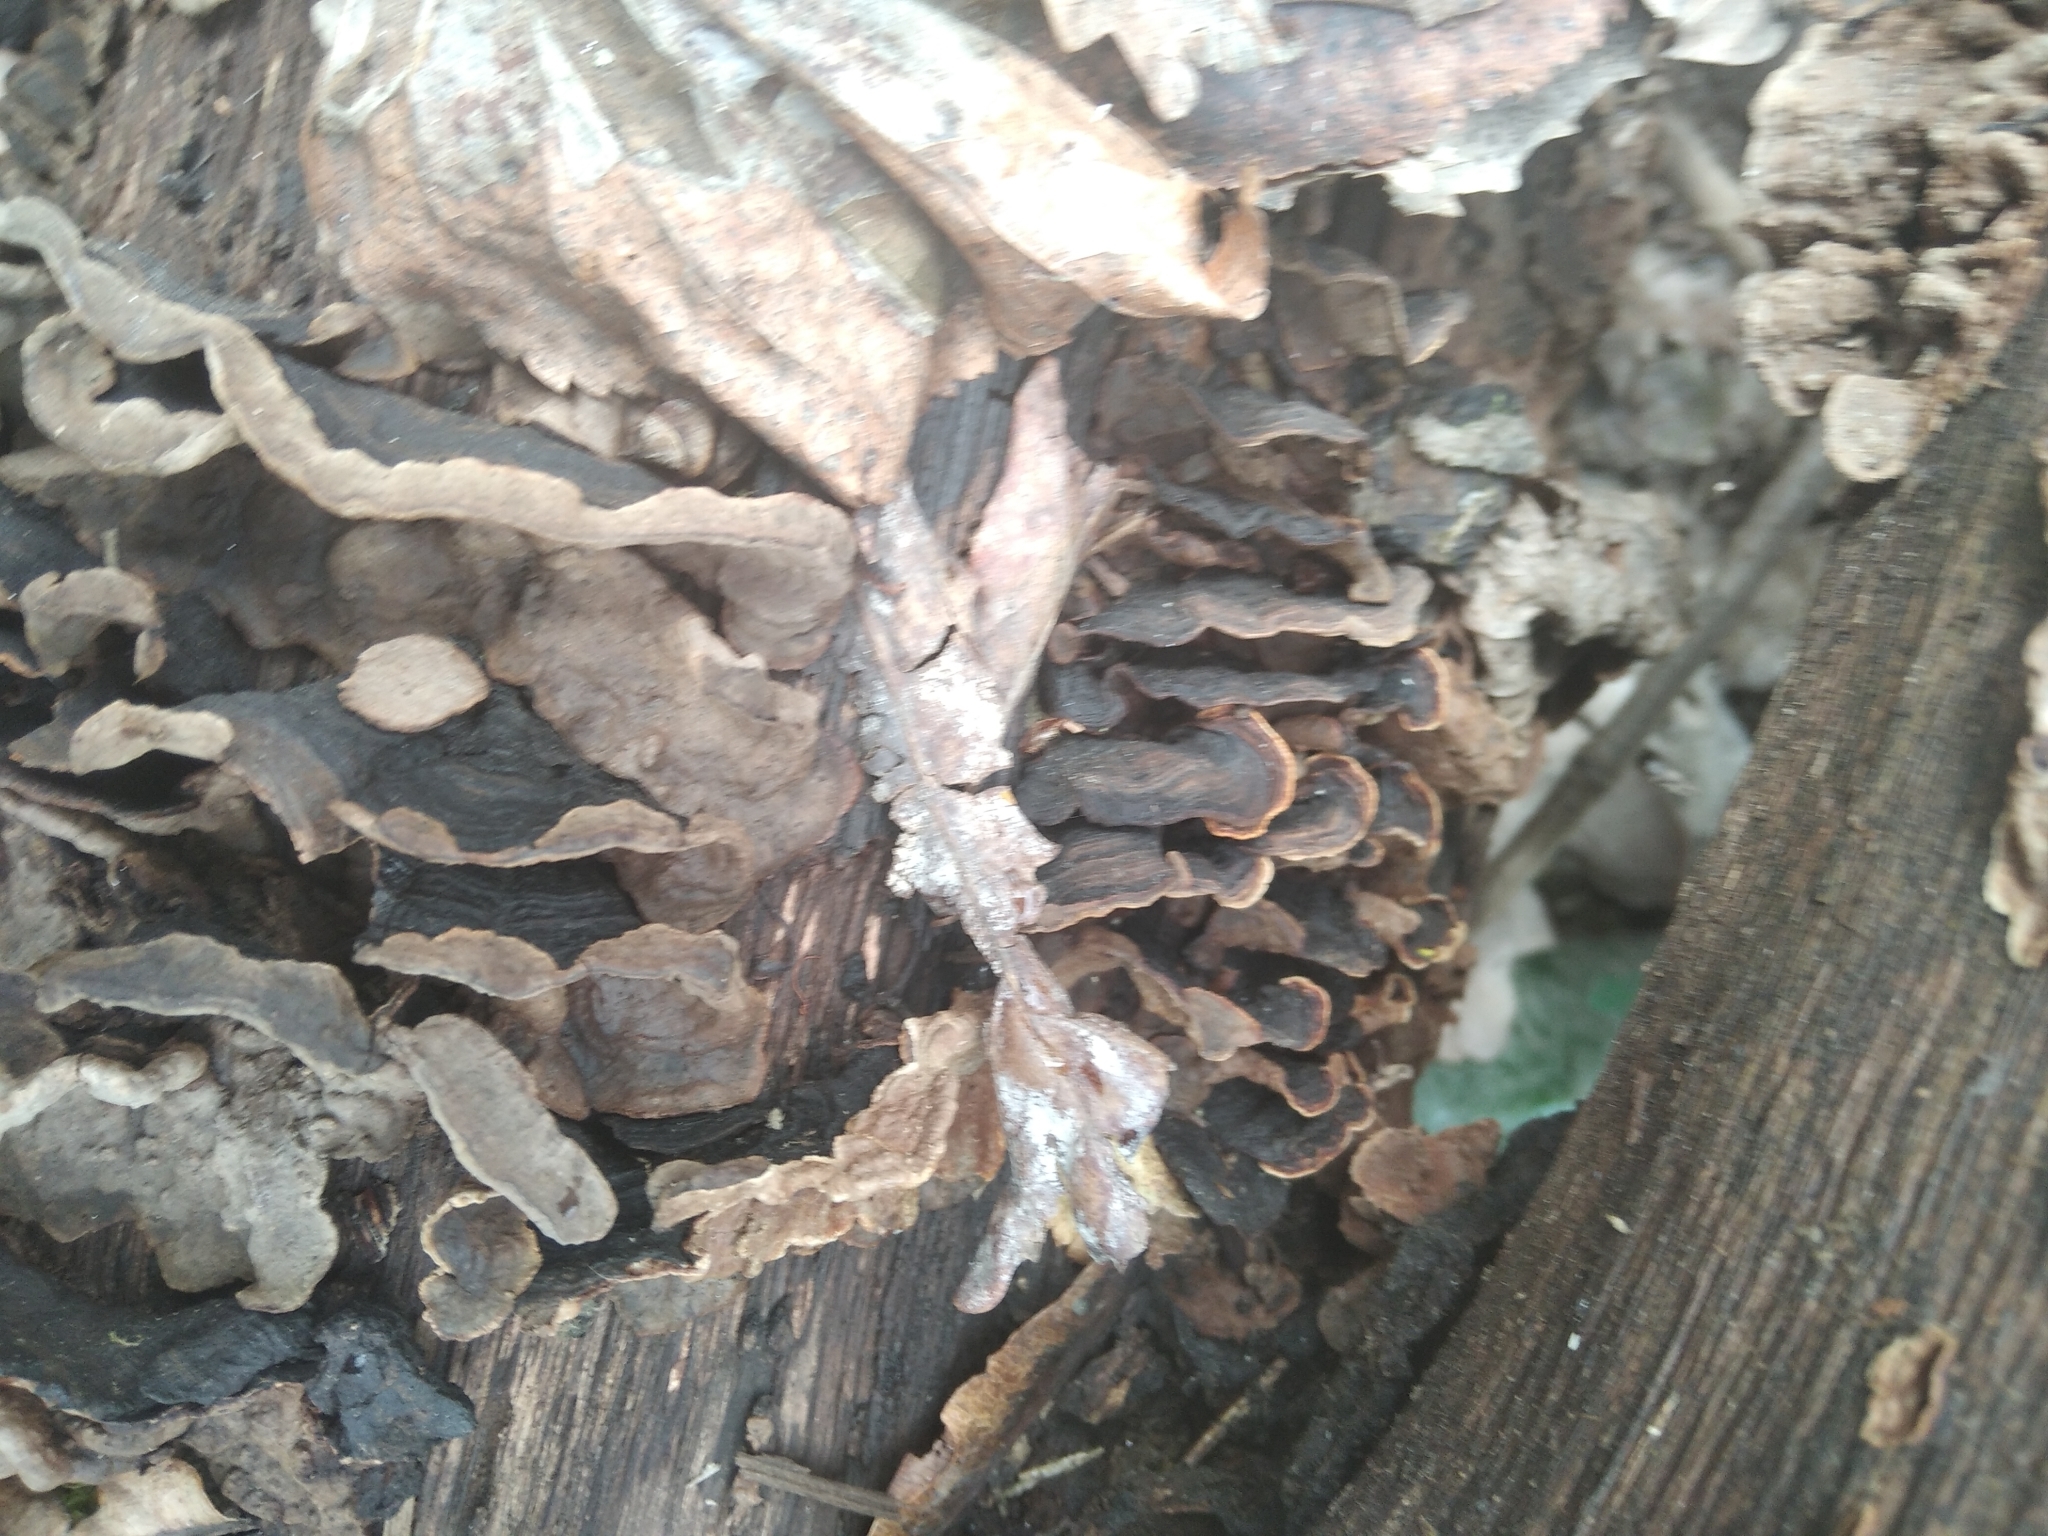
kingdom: Fungi
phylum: Basidiomycota
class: Agaricomycetes
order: Hymenochaetales
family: Hymenochaetaceae
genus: Hymenochaete
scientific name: Hymenochaete rubiginosa
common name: Oak curtain crust
